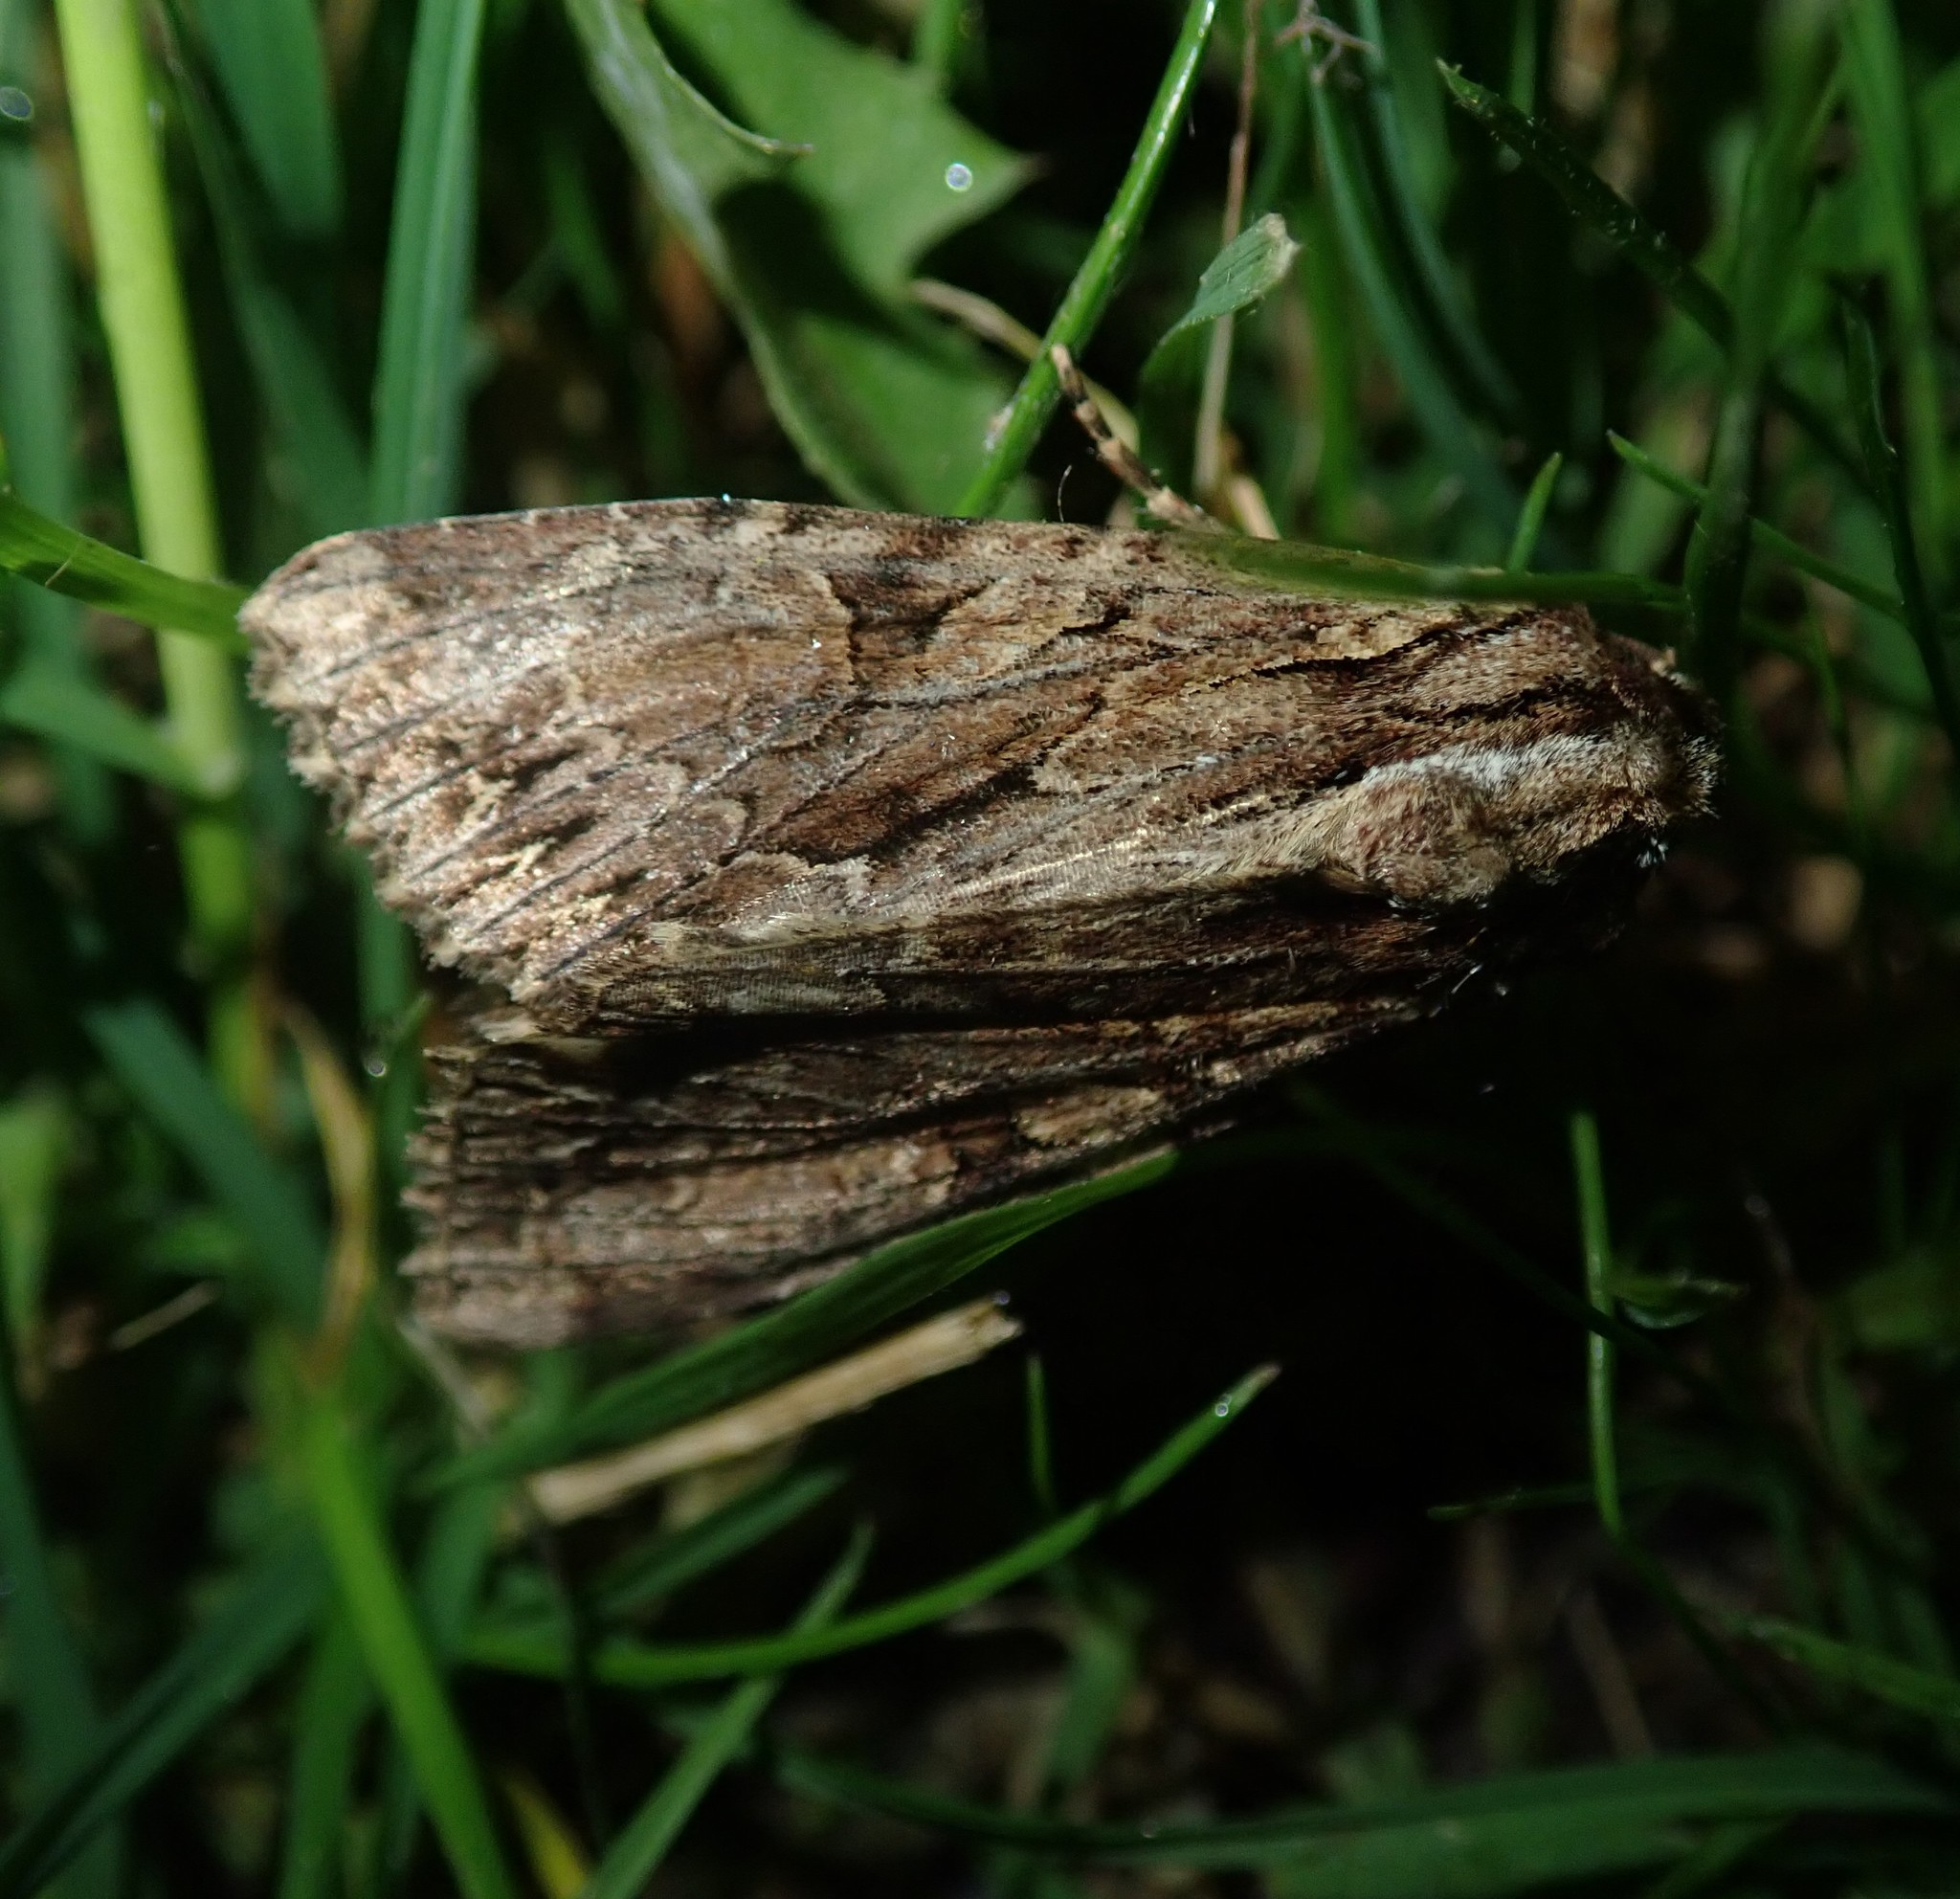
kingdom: Animalia
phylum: Arthropoda
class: Insecta
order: Lepidoptera
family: Noctuidae
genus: Apamea
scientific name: Apamea monoglypha
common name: Dark arches
